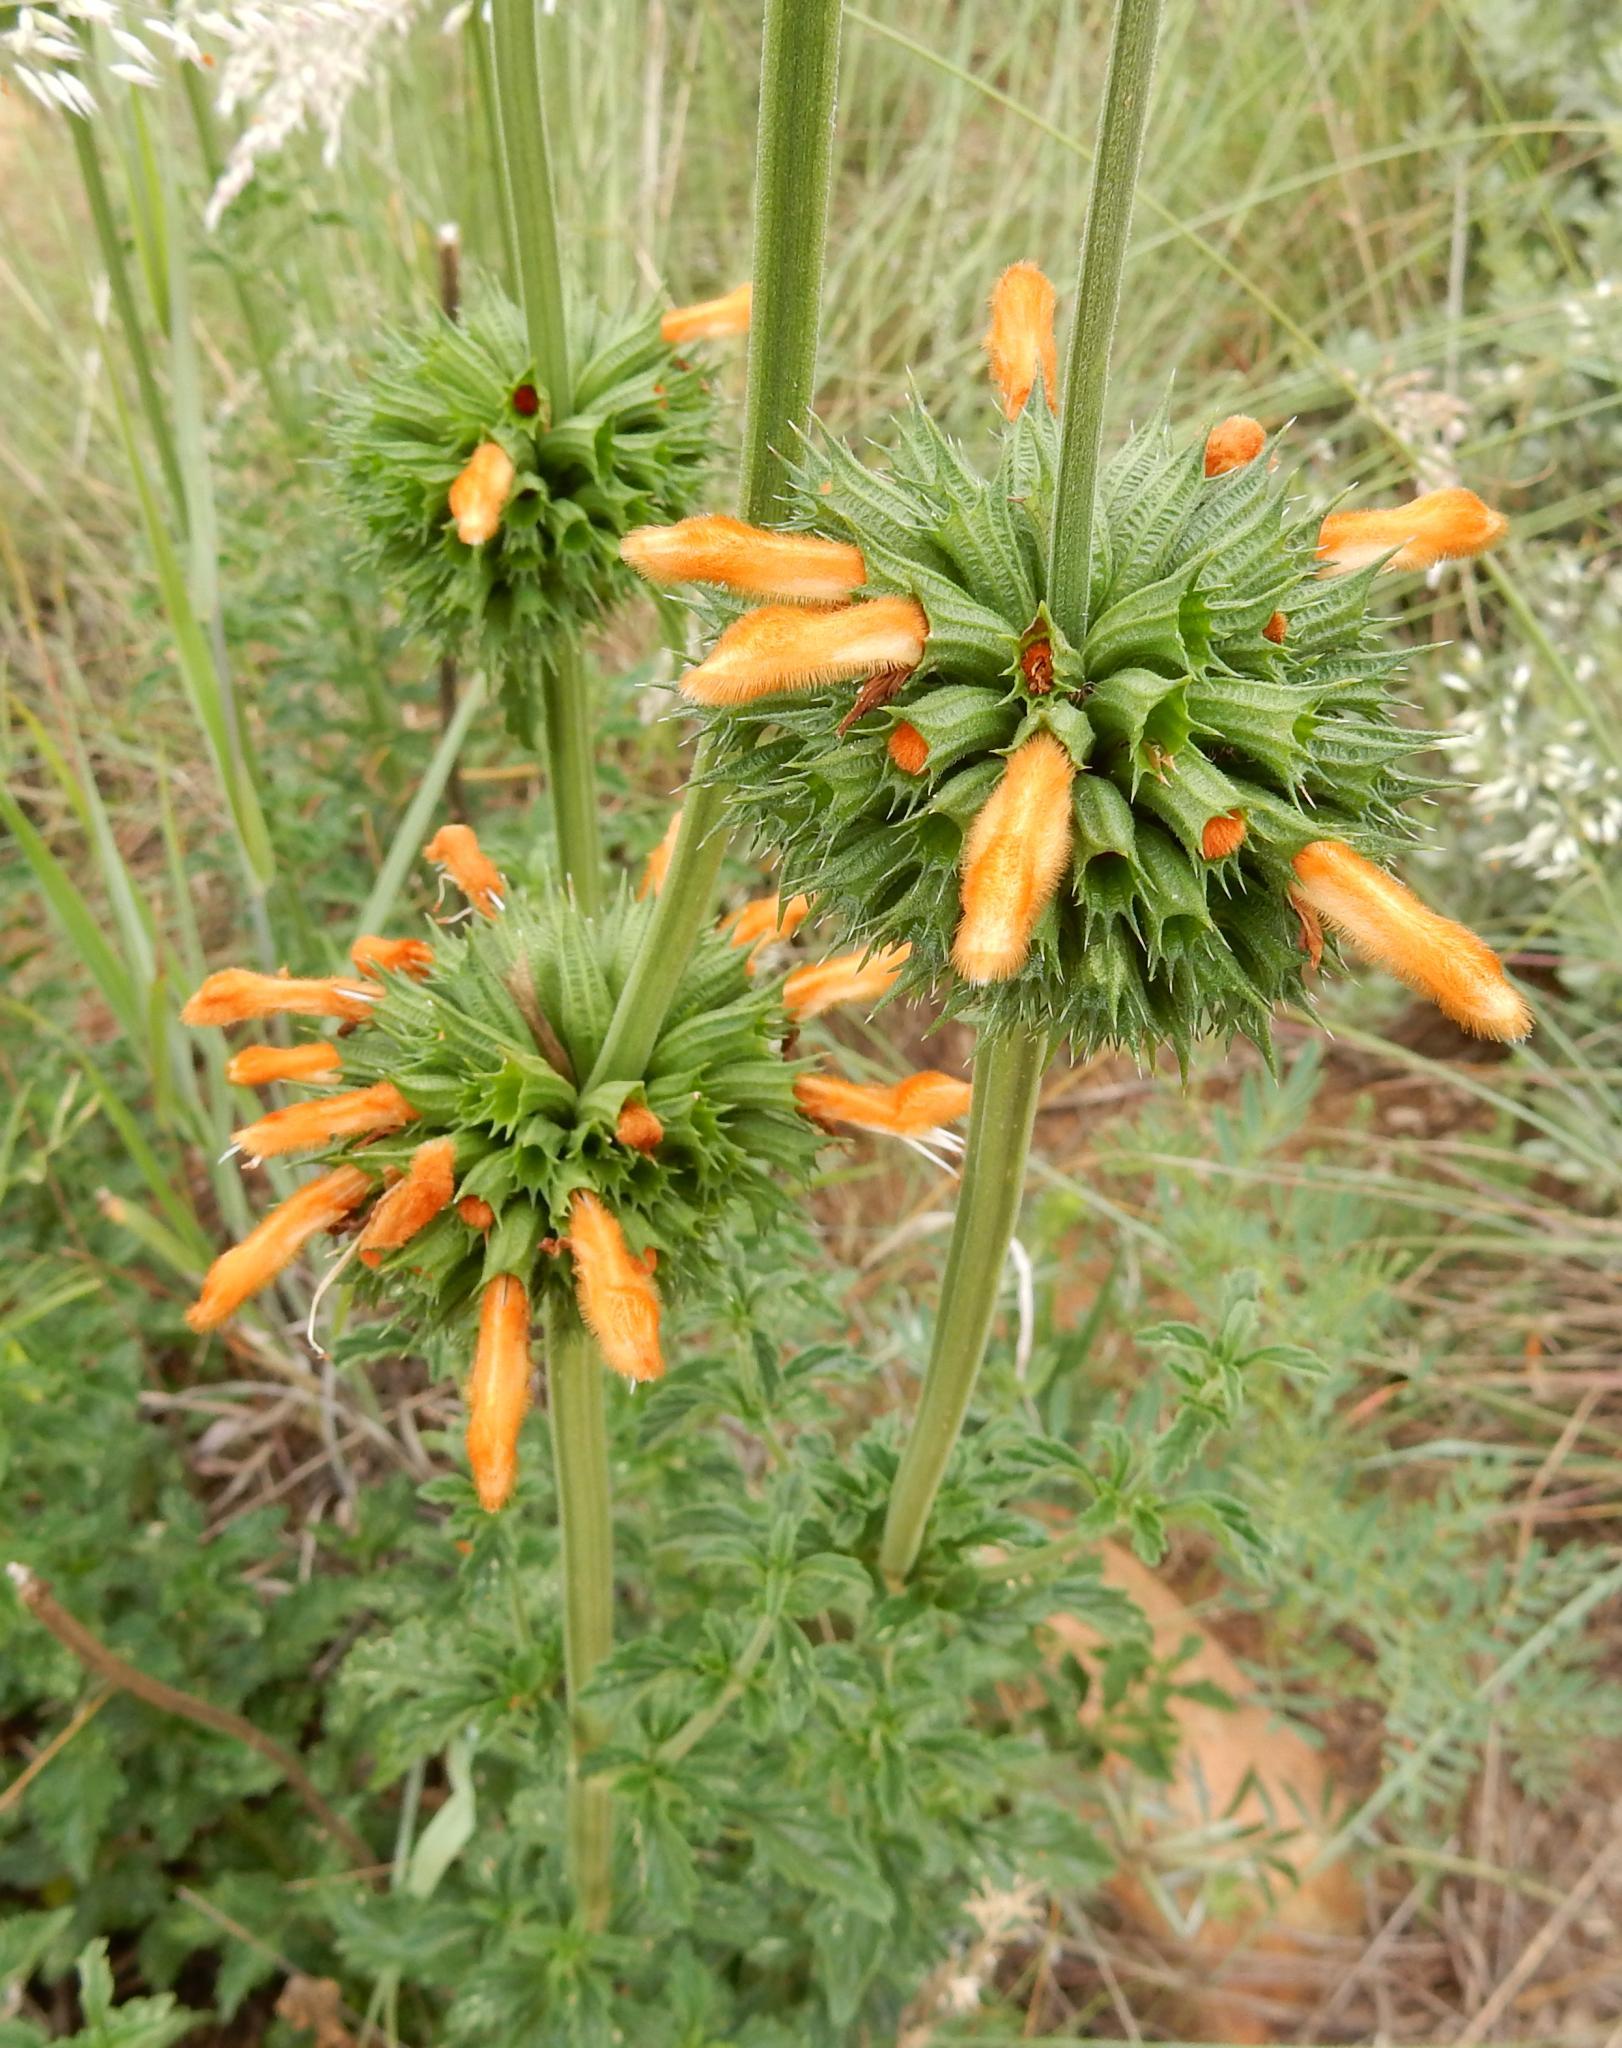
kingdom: Plantae
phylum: Tracheophyta
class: Magnoliopsida
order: Lamiales
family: Lamiaceae
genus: Leonotis
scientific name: Leonotis ocymifolia
